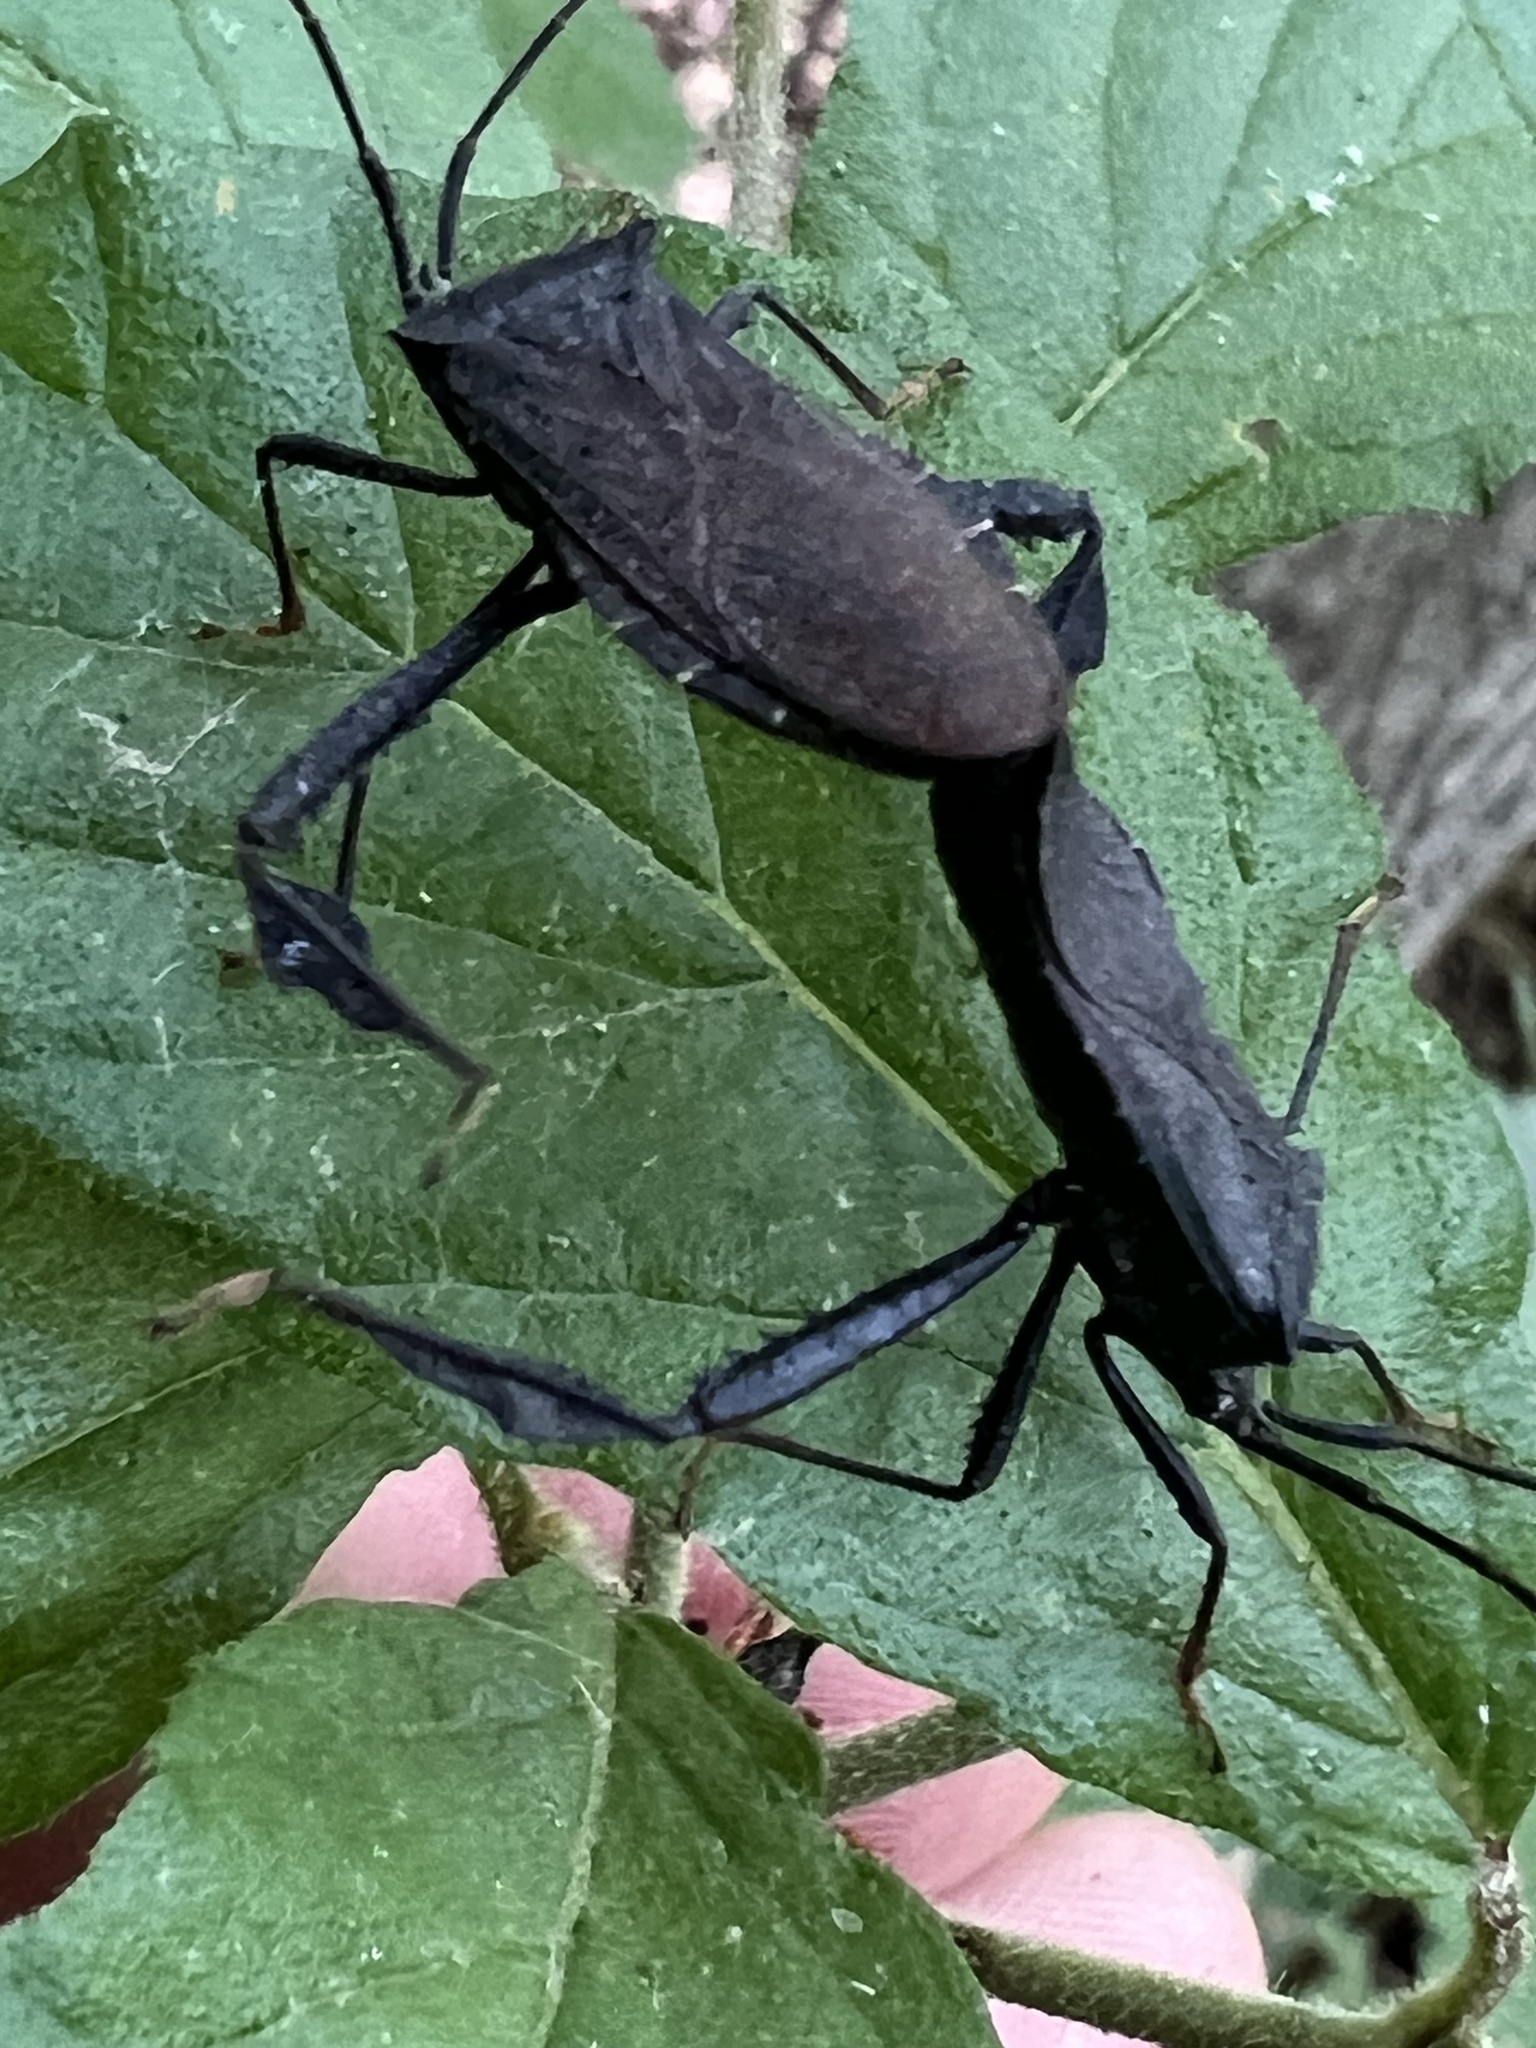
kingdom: Animalia
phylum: Arthropoda
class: Insecta
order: Hemiptera
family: Coreidae
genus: Acanthocephala
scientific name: Acanthocephala terminalis
